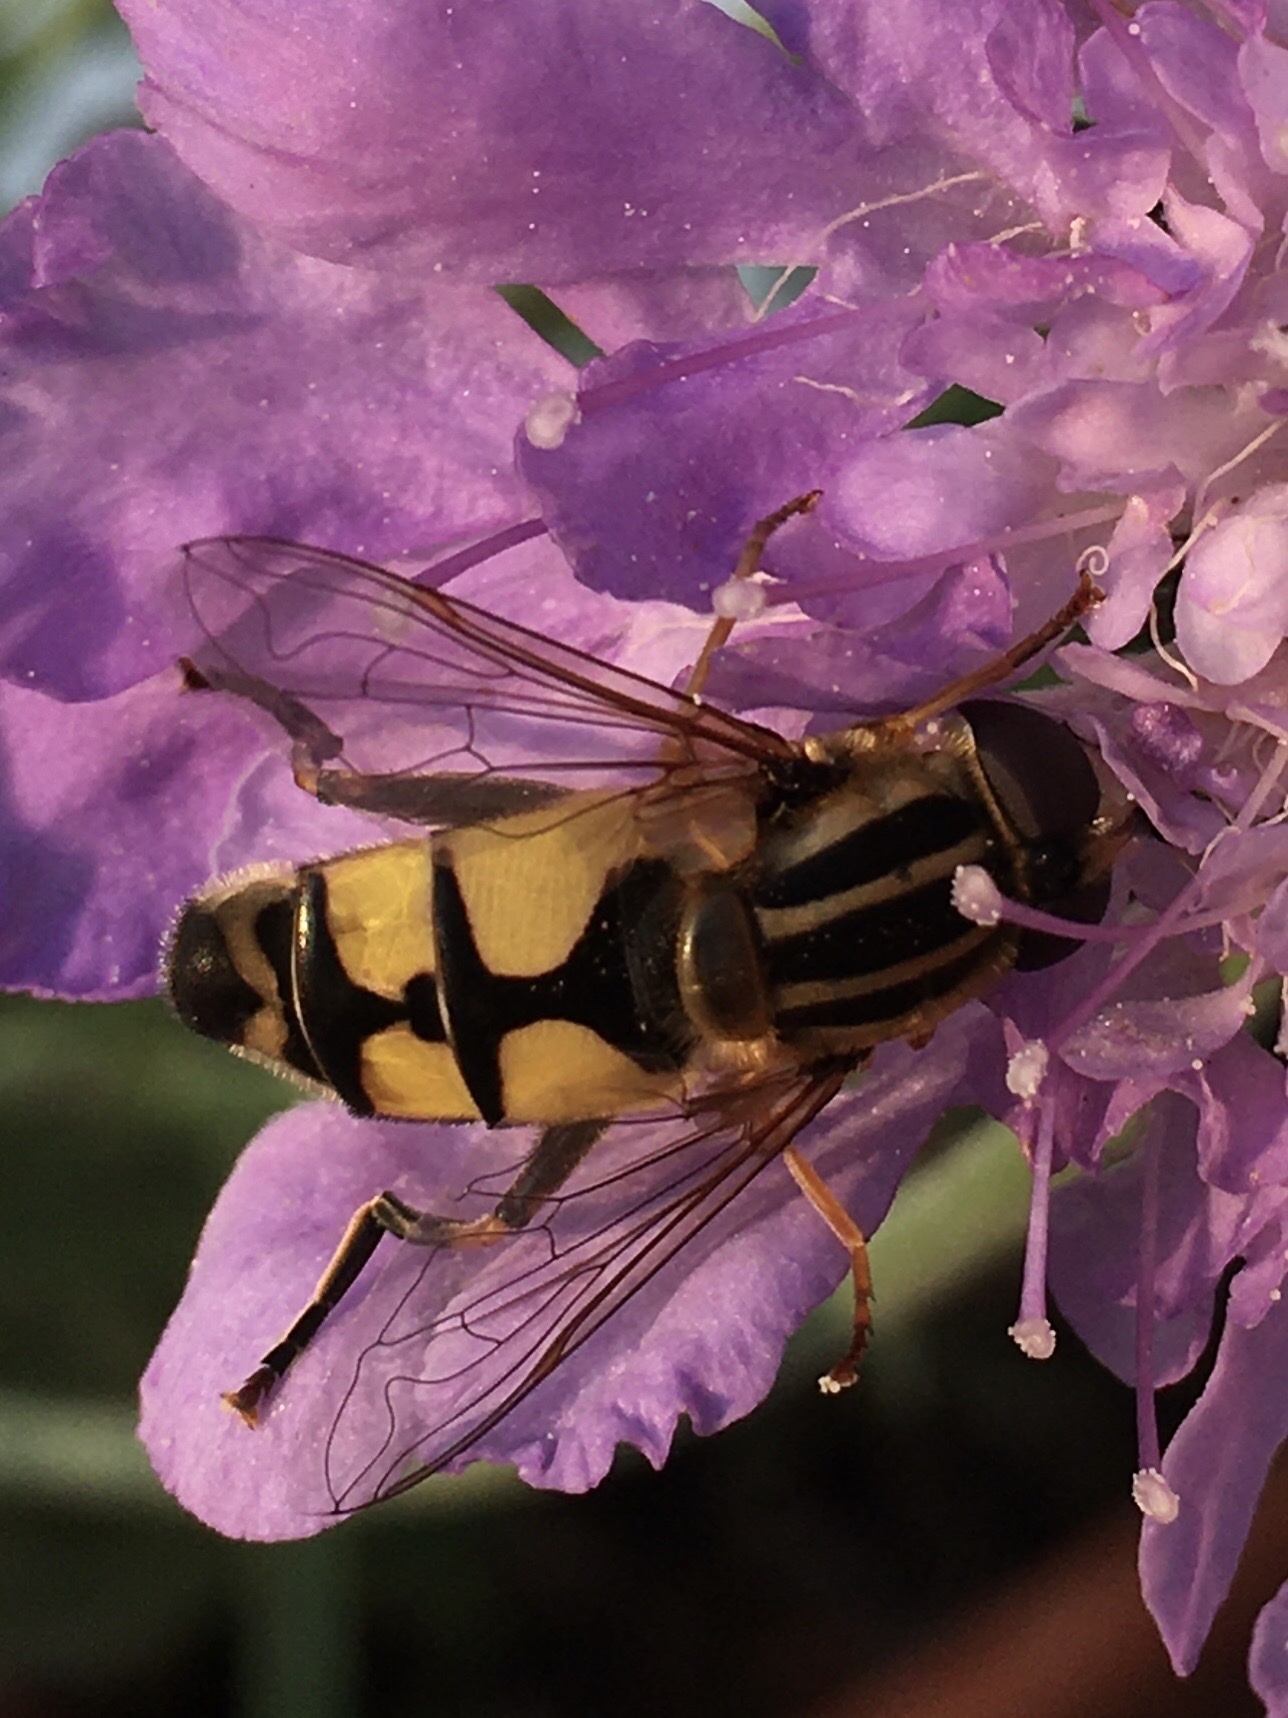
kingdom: Animalia
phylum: Arthropoda
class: Insecta
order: Diptera
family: Syrphidae
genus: Helophilus
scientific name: Helophilus trivittatus
